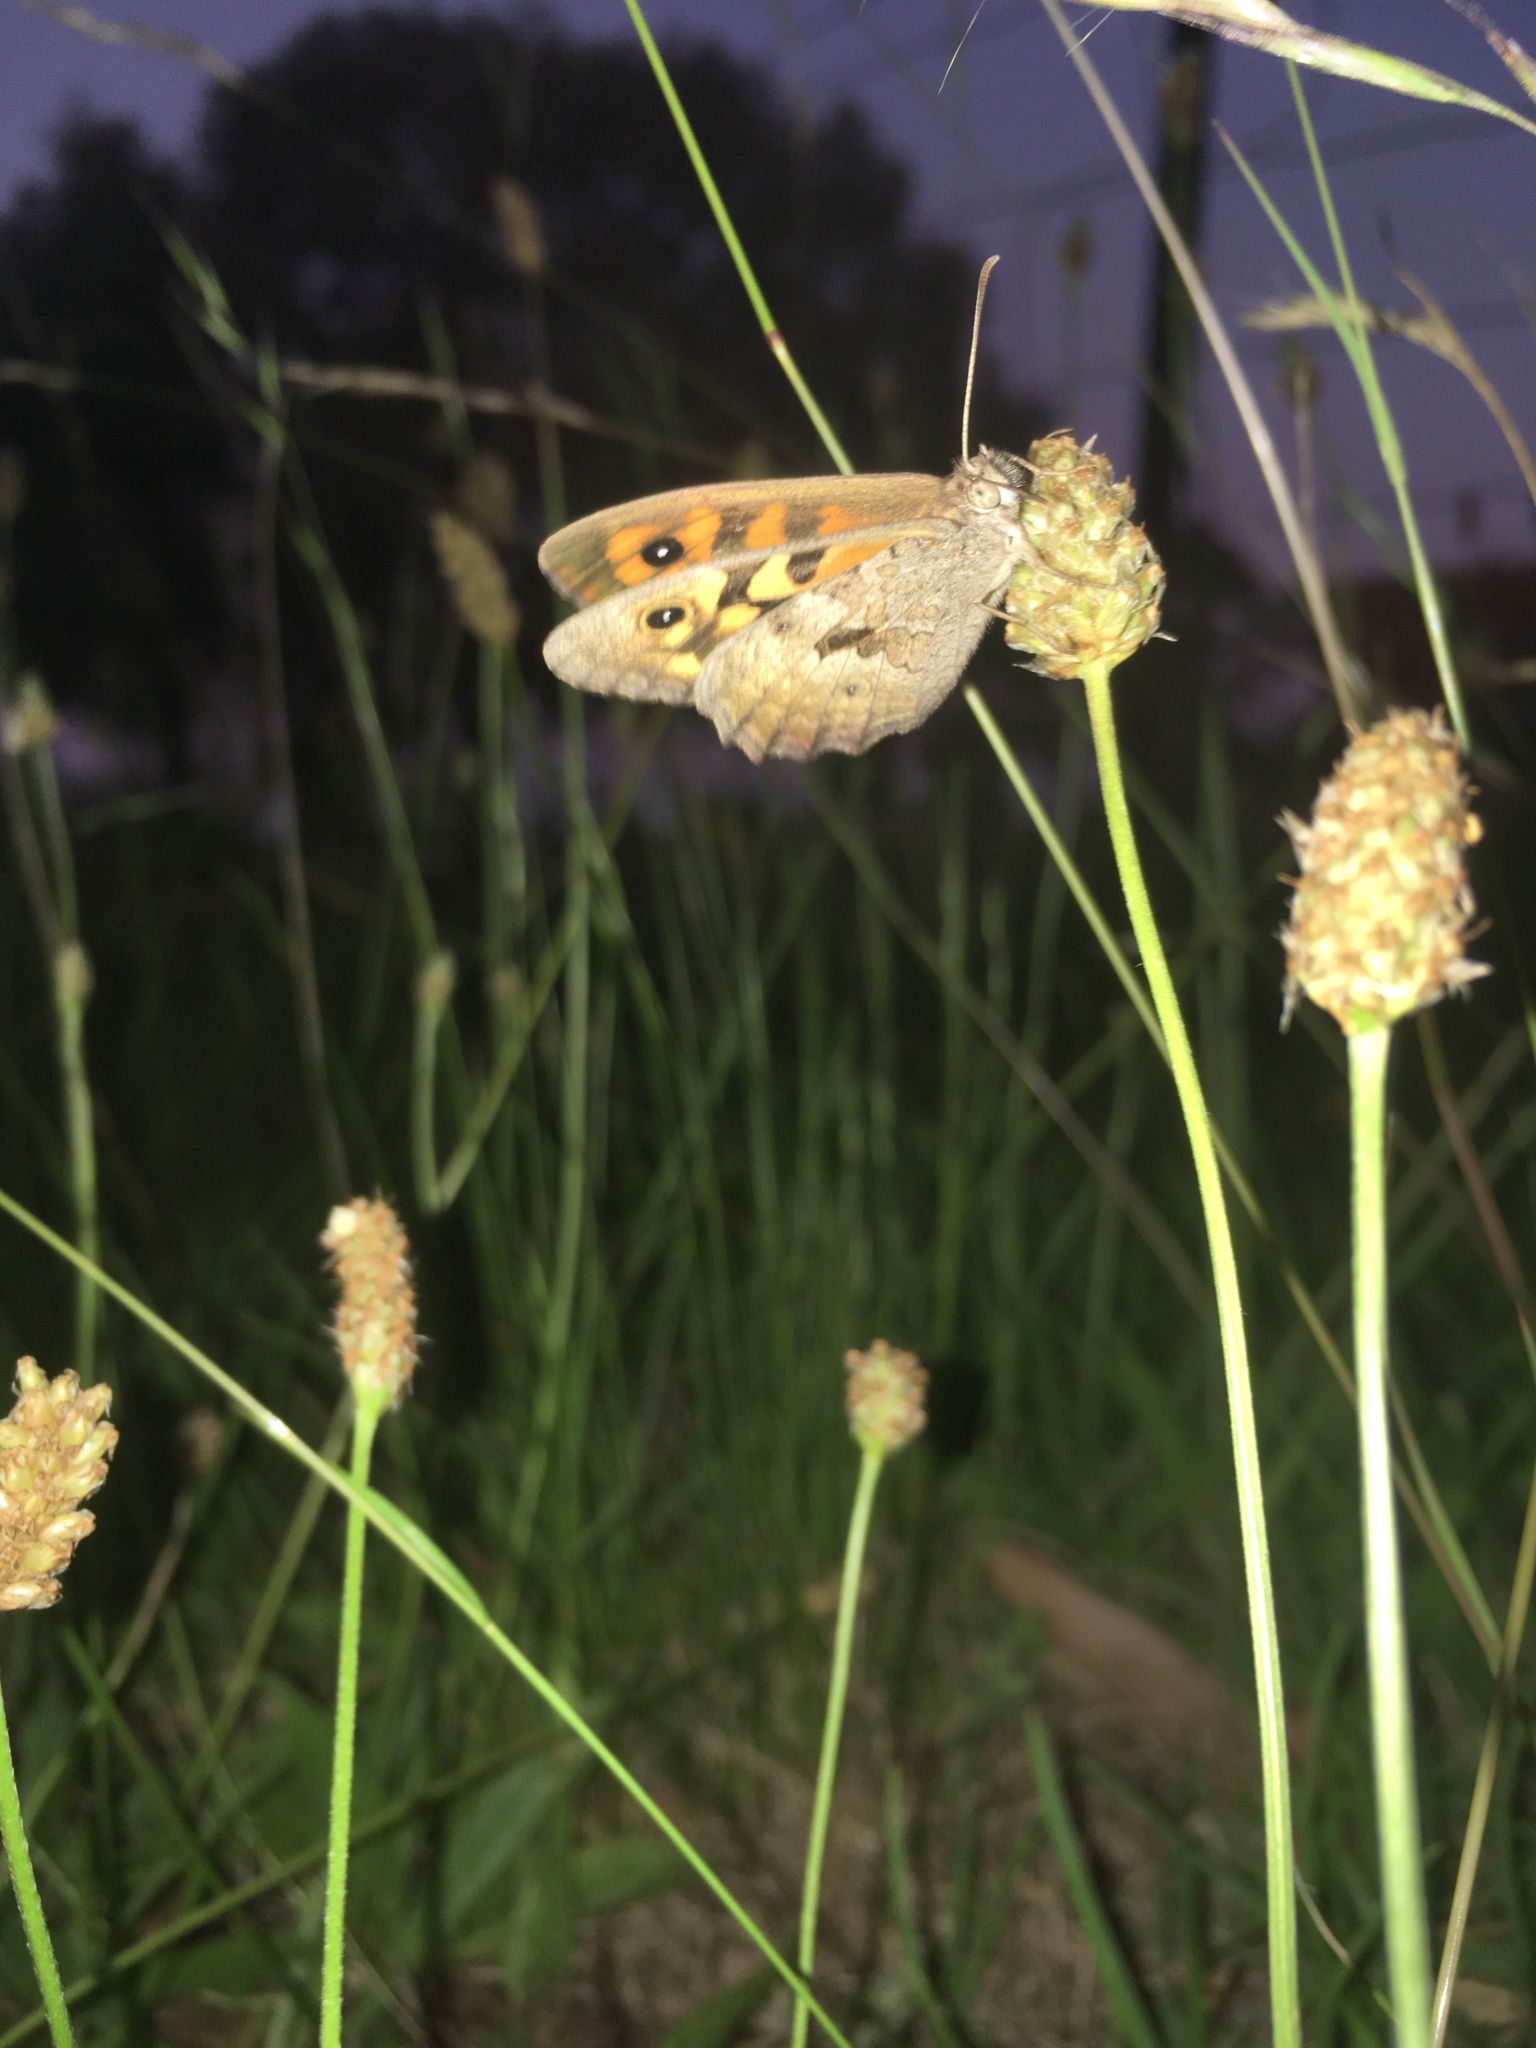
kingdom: Animalia
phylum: Arthropoda
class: Insecta
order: Lepidoptera
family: Nymphalidae
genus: Geitoneura
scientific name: Geitoneura klugii
